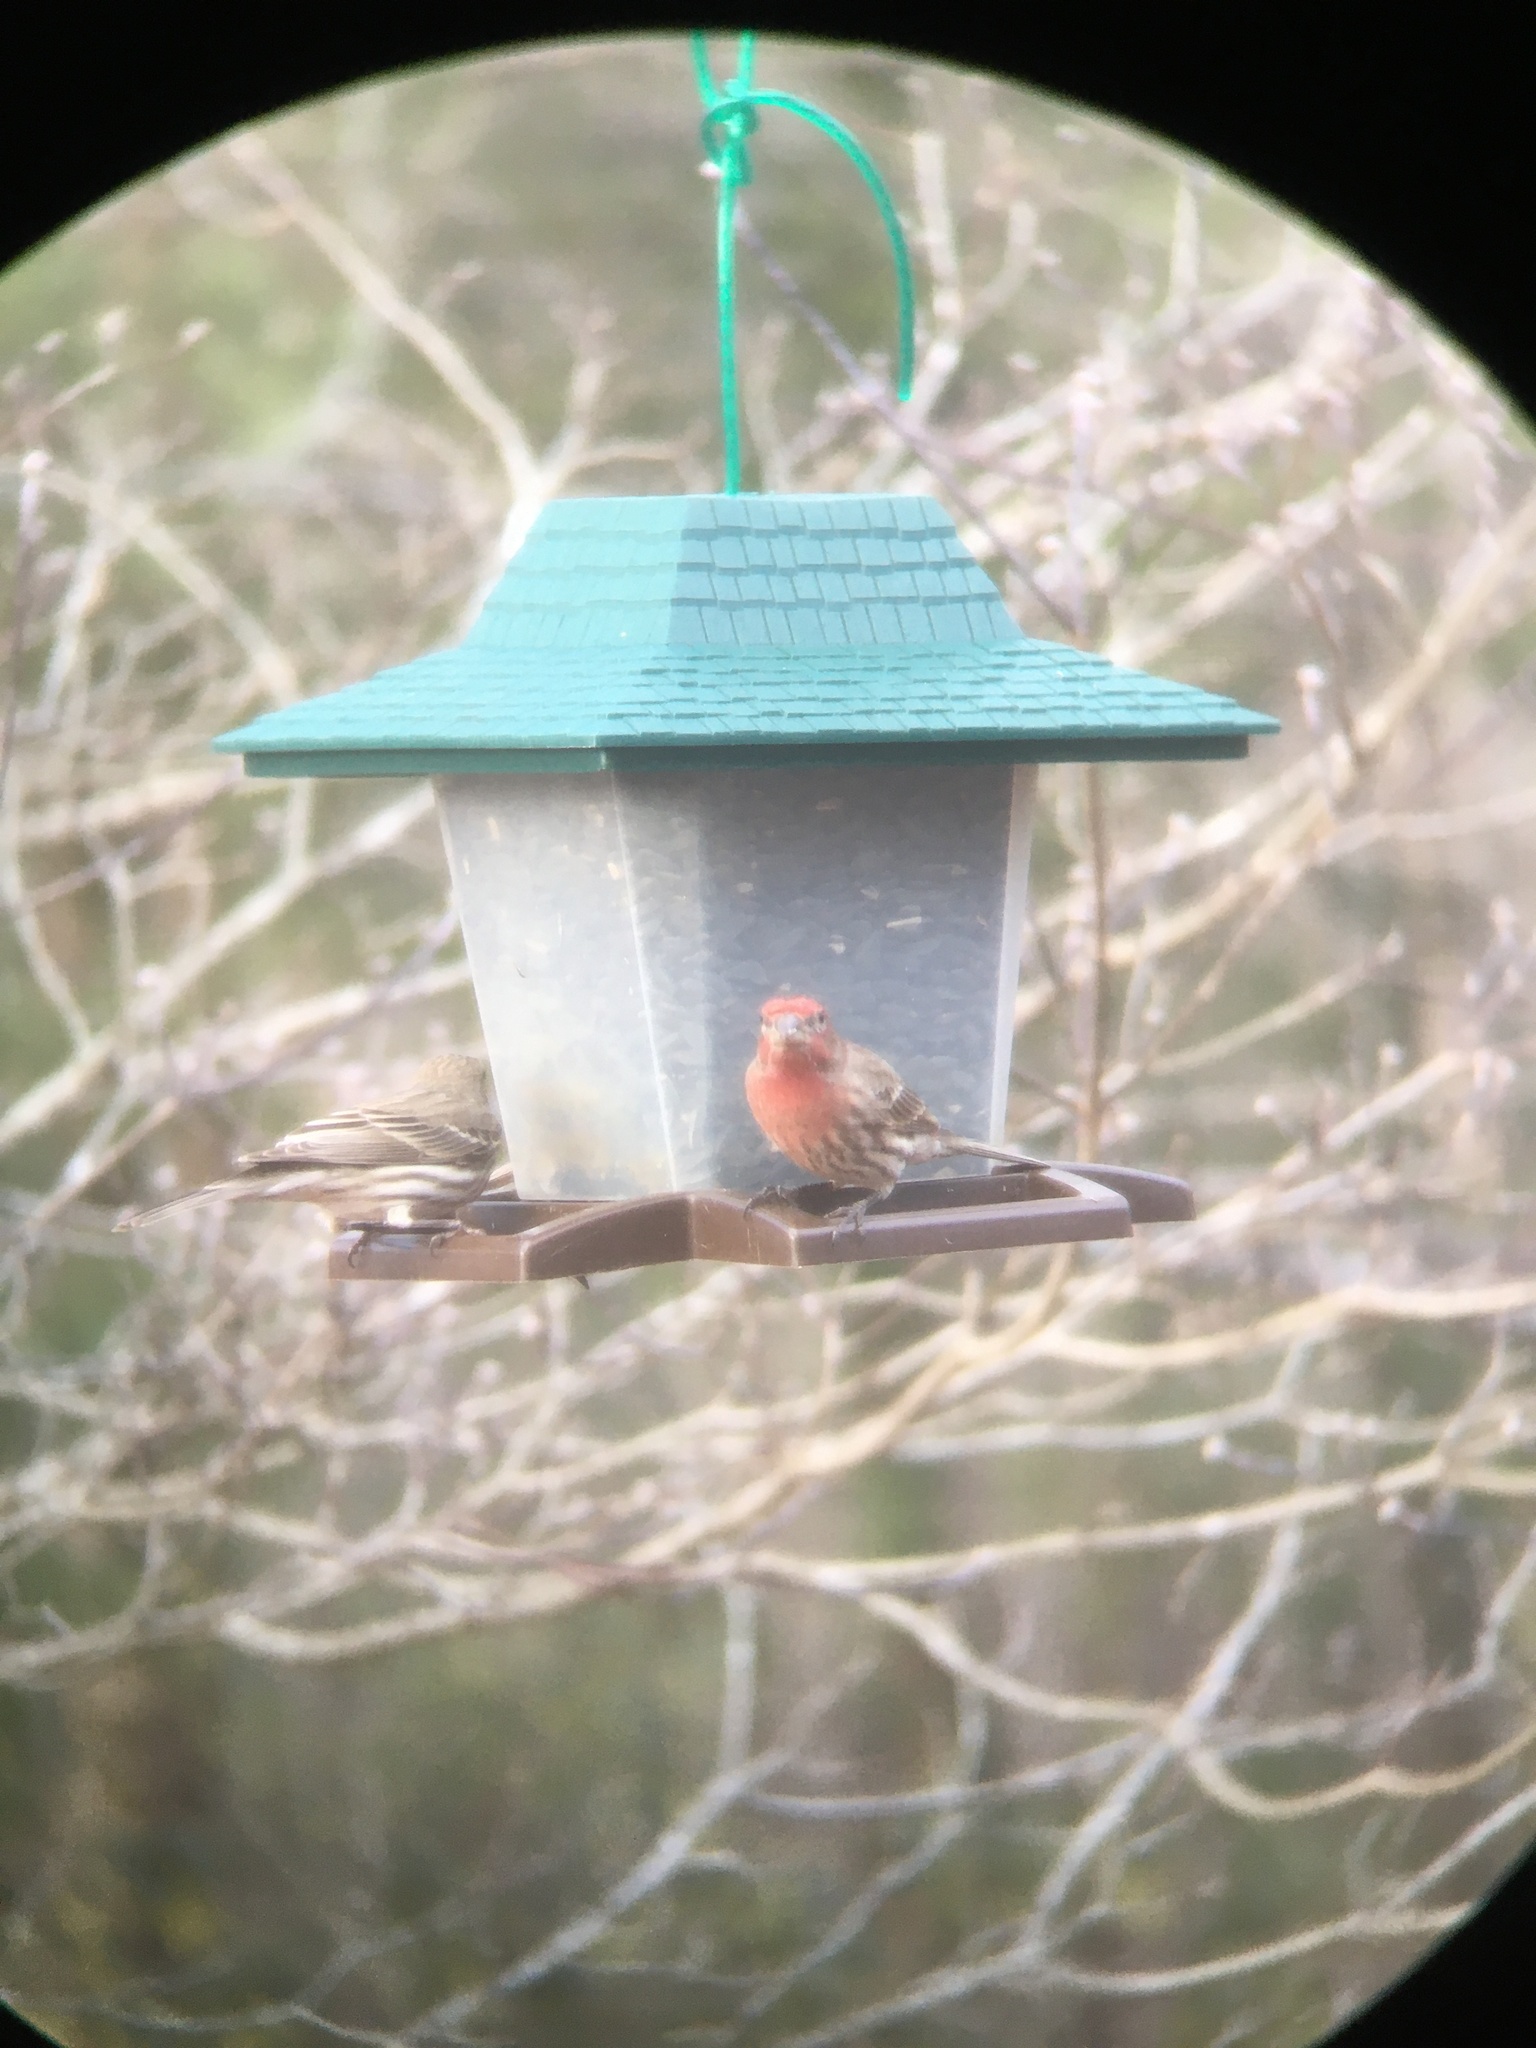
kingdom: Animalia
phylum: Chordata
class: Aves
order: Passeriformes
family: Fringillidae
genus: Haemorhous
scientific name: Haemorhous mexicanus
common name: House finch
